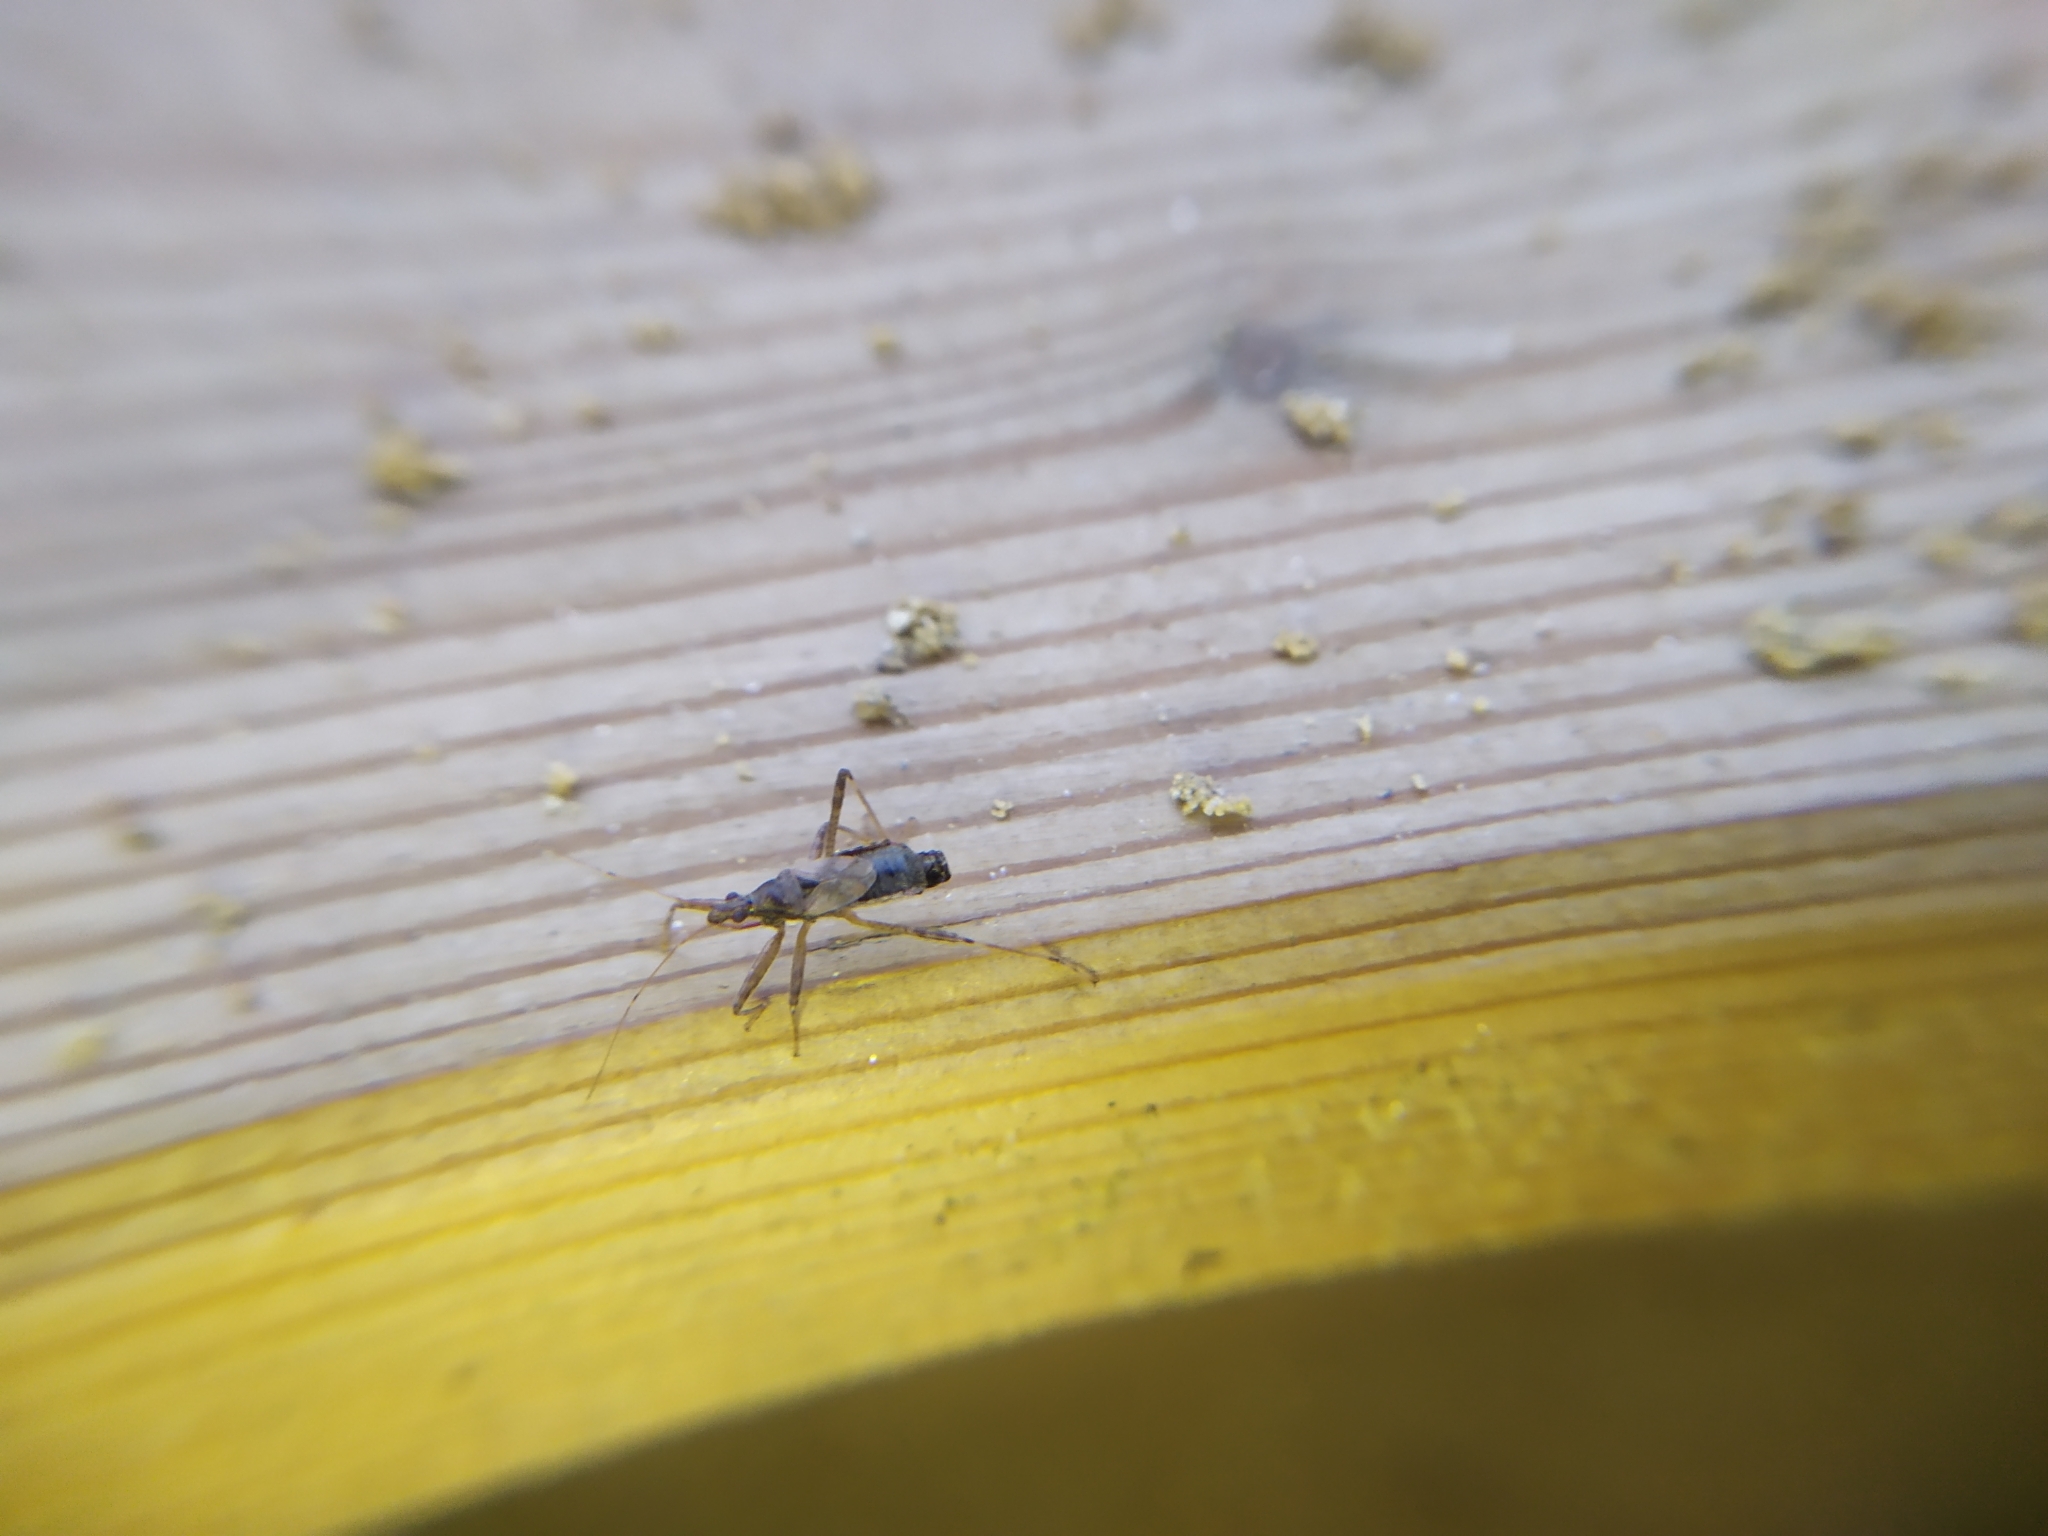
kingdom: Animalia
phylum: Arthropoda
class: Insecta
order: Hemiptera
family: Nabidae
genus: Himacerus
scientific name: Himacerus apterus
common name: Tree damsel bug
